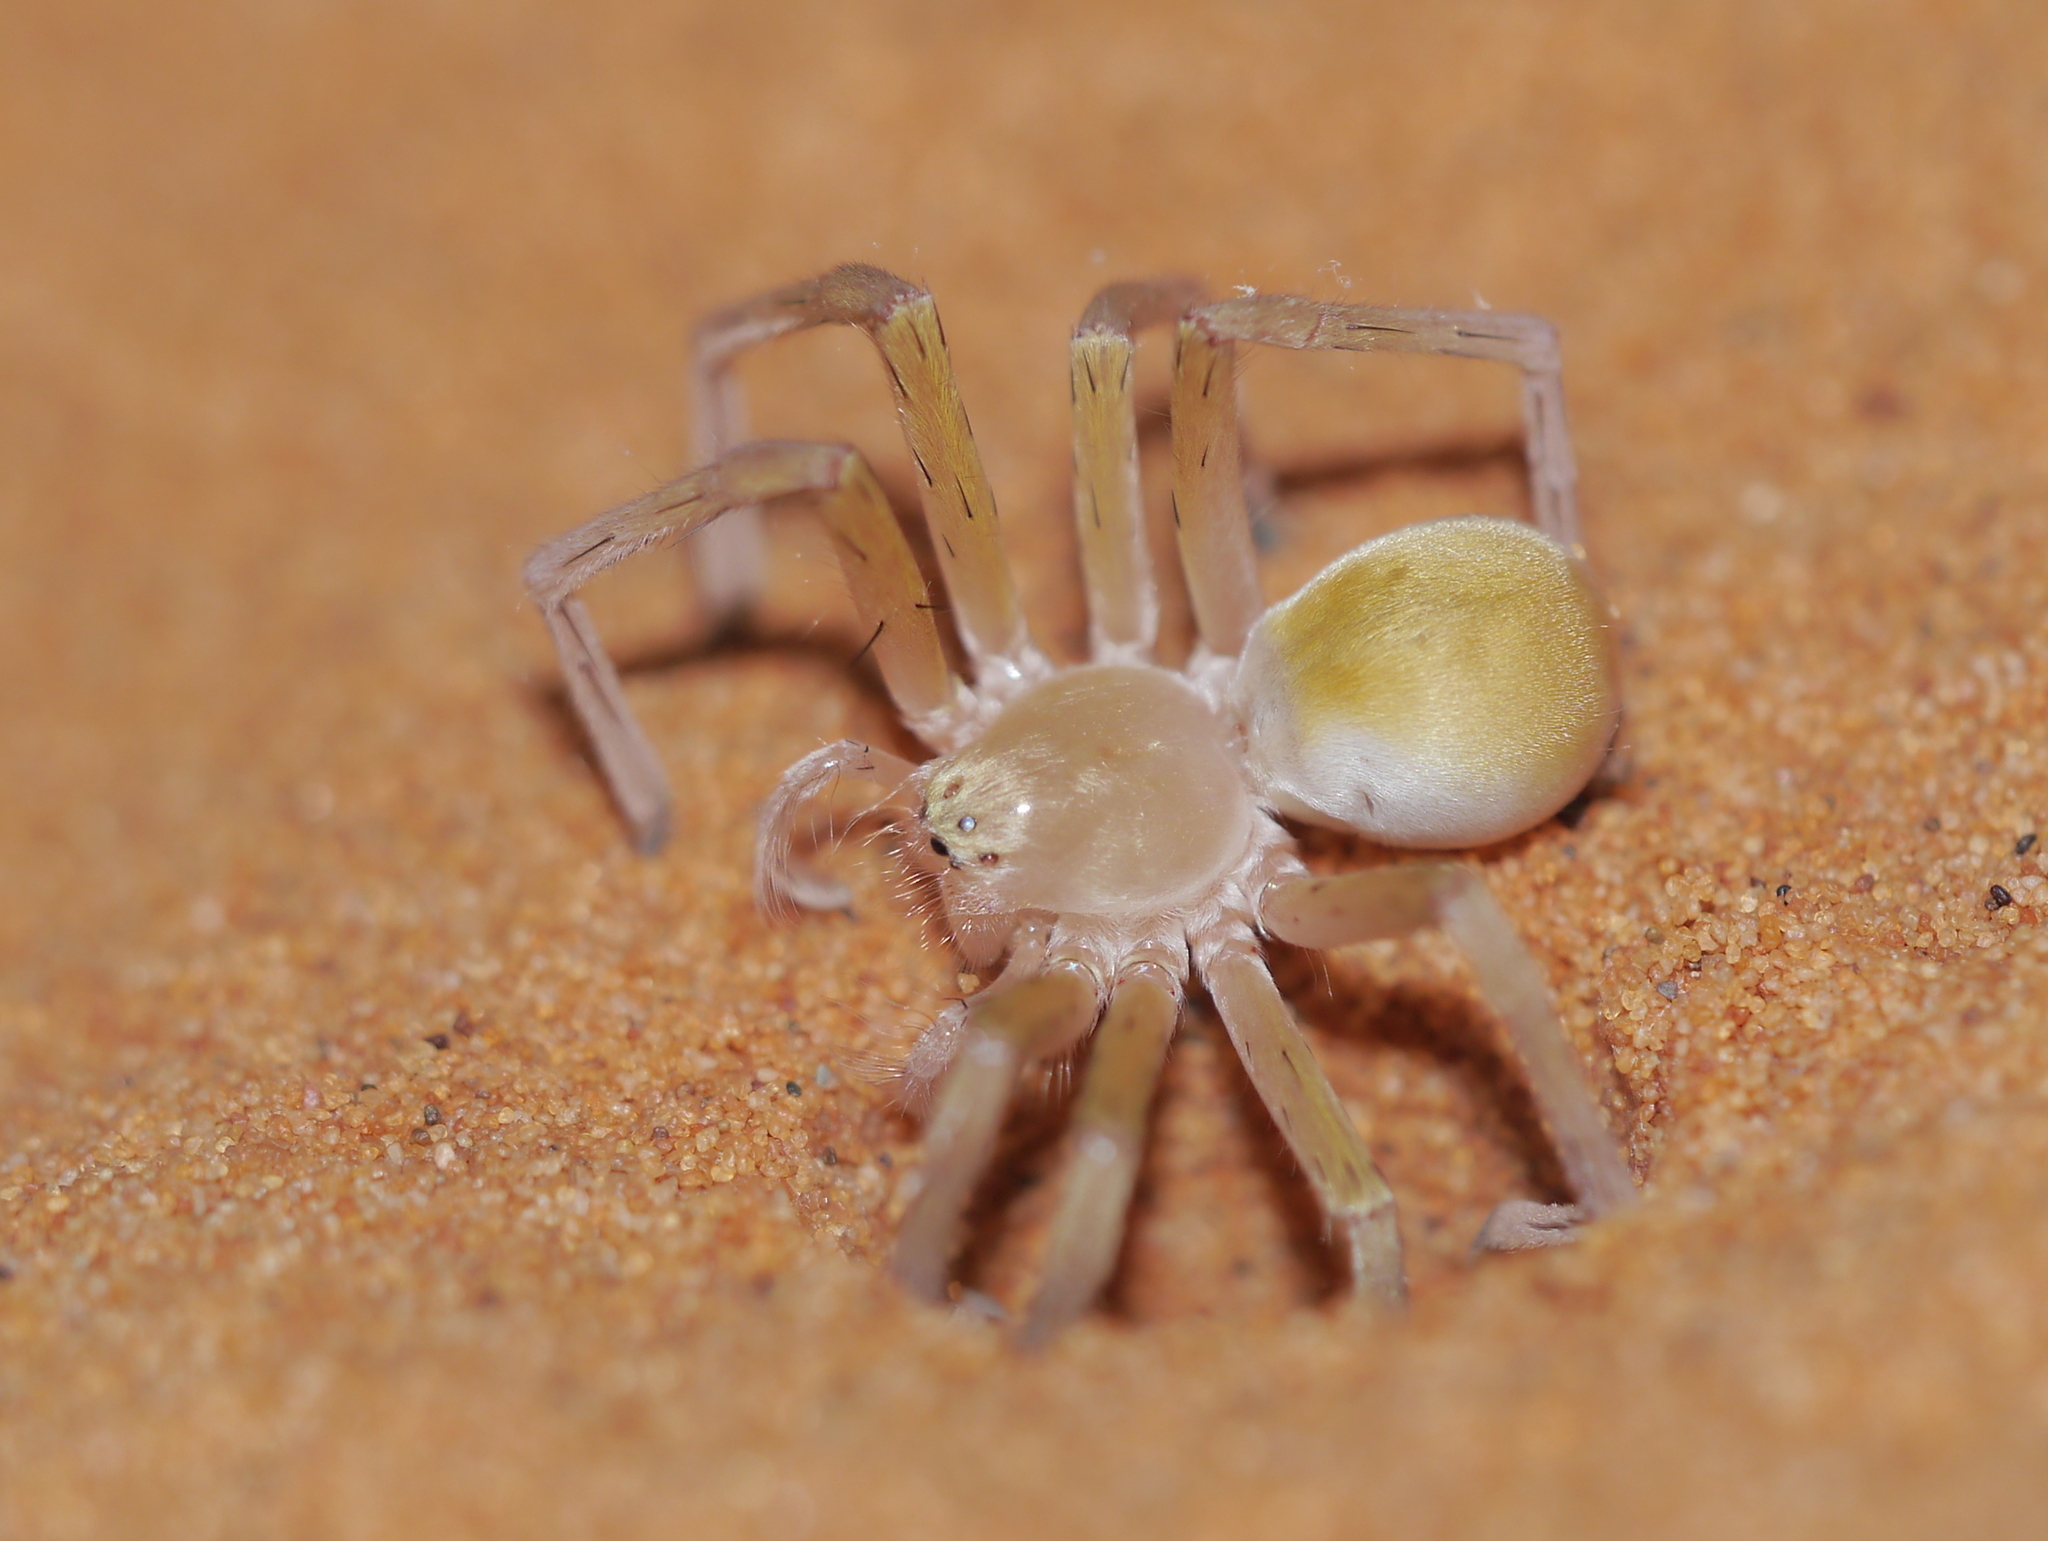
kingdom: Animalia
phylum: Arthropoda
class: Arachnida
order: Araneae
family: Sparassidae
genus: Cebrennus
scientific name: Cebrennus
